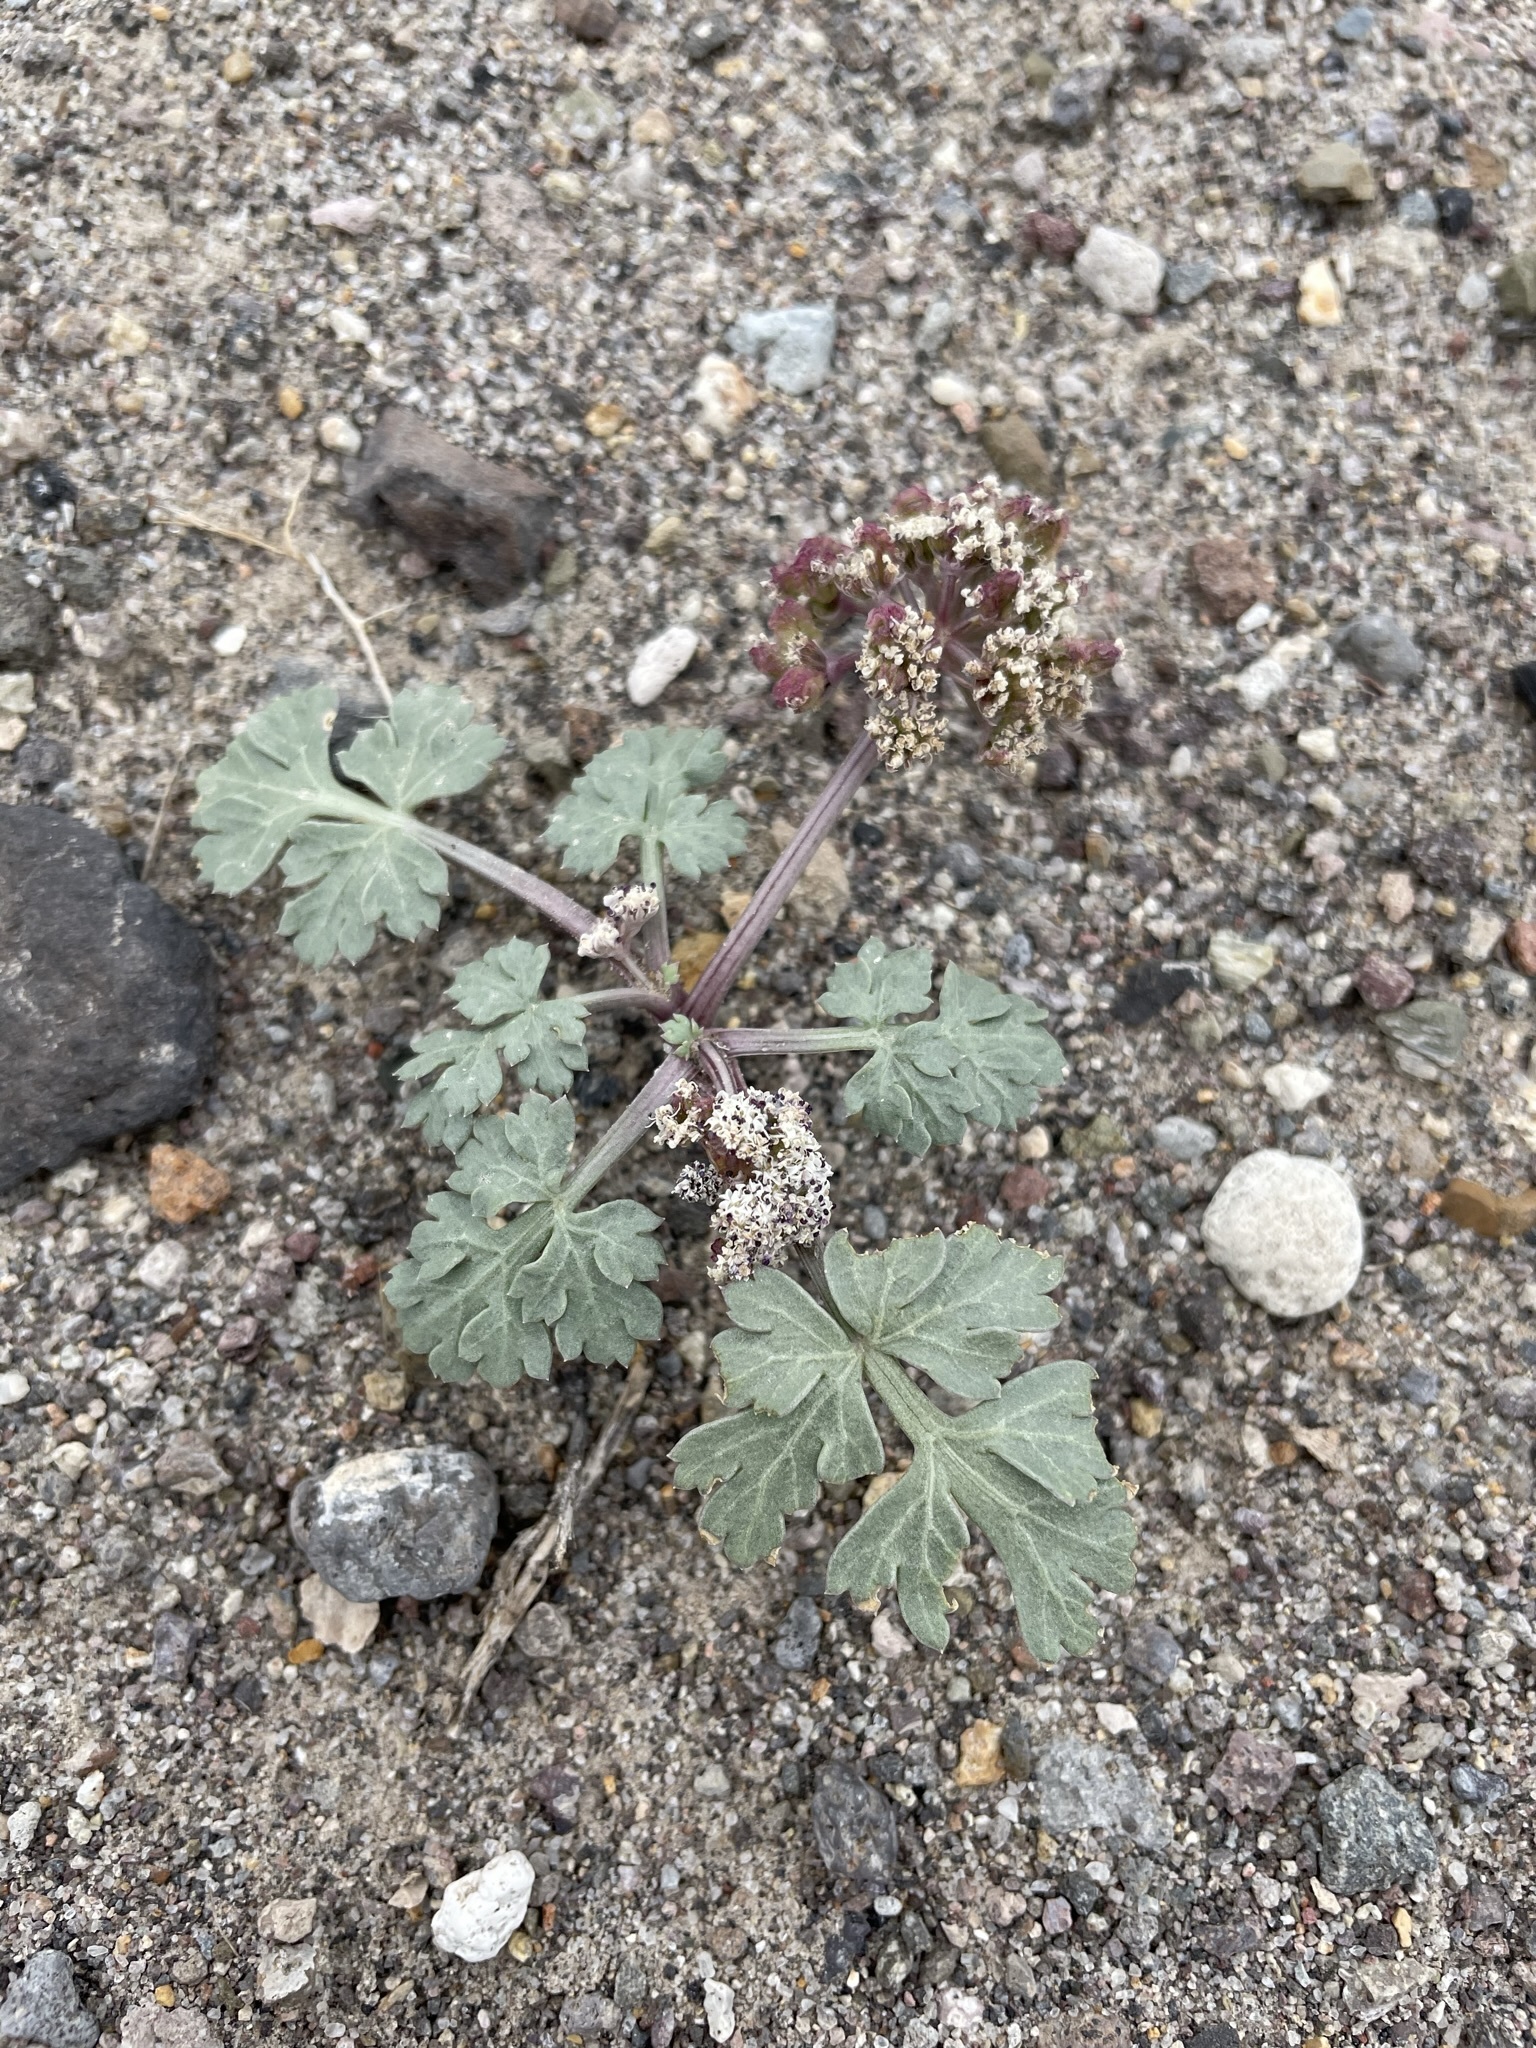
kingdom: Plantae
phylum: Tracheophyta
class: Magnoliopsida
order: Apiales
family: Apiaceae
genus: Rhysopterus
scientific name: Rhysopterus plurijugus
